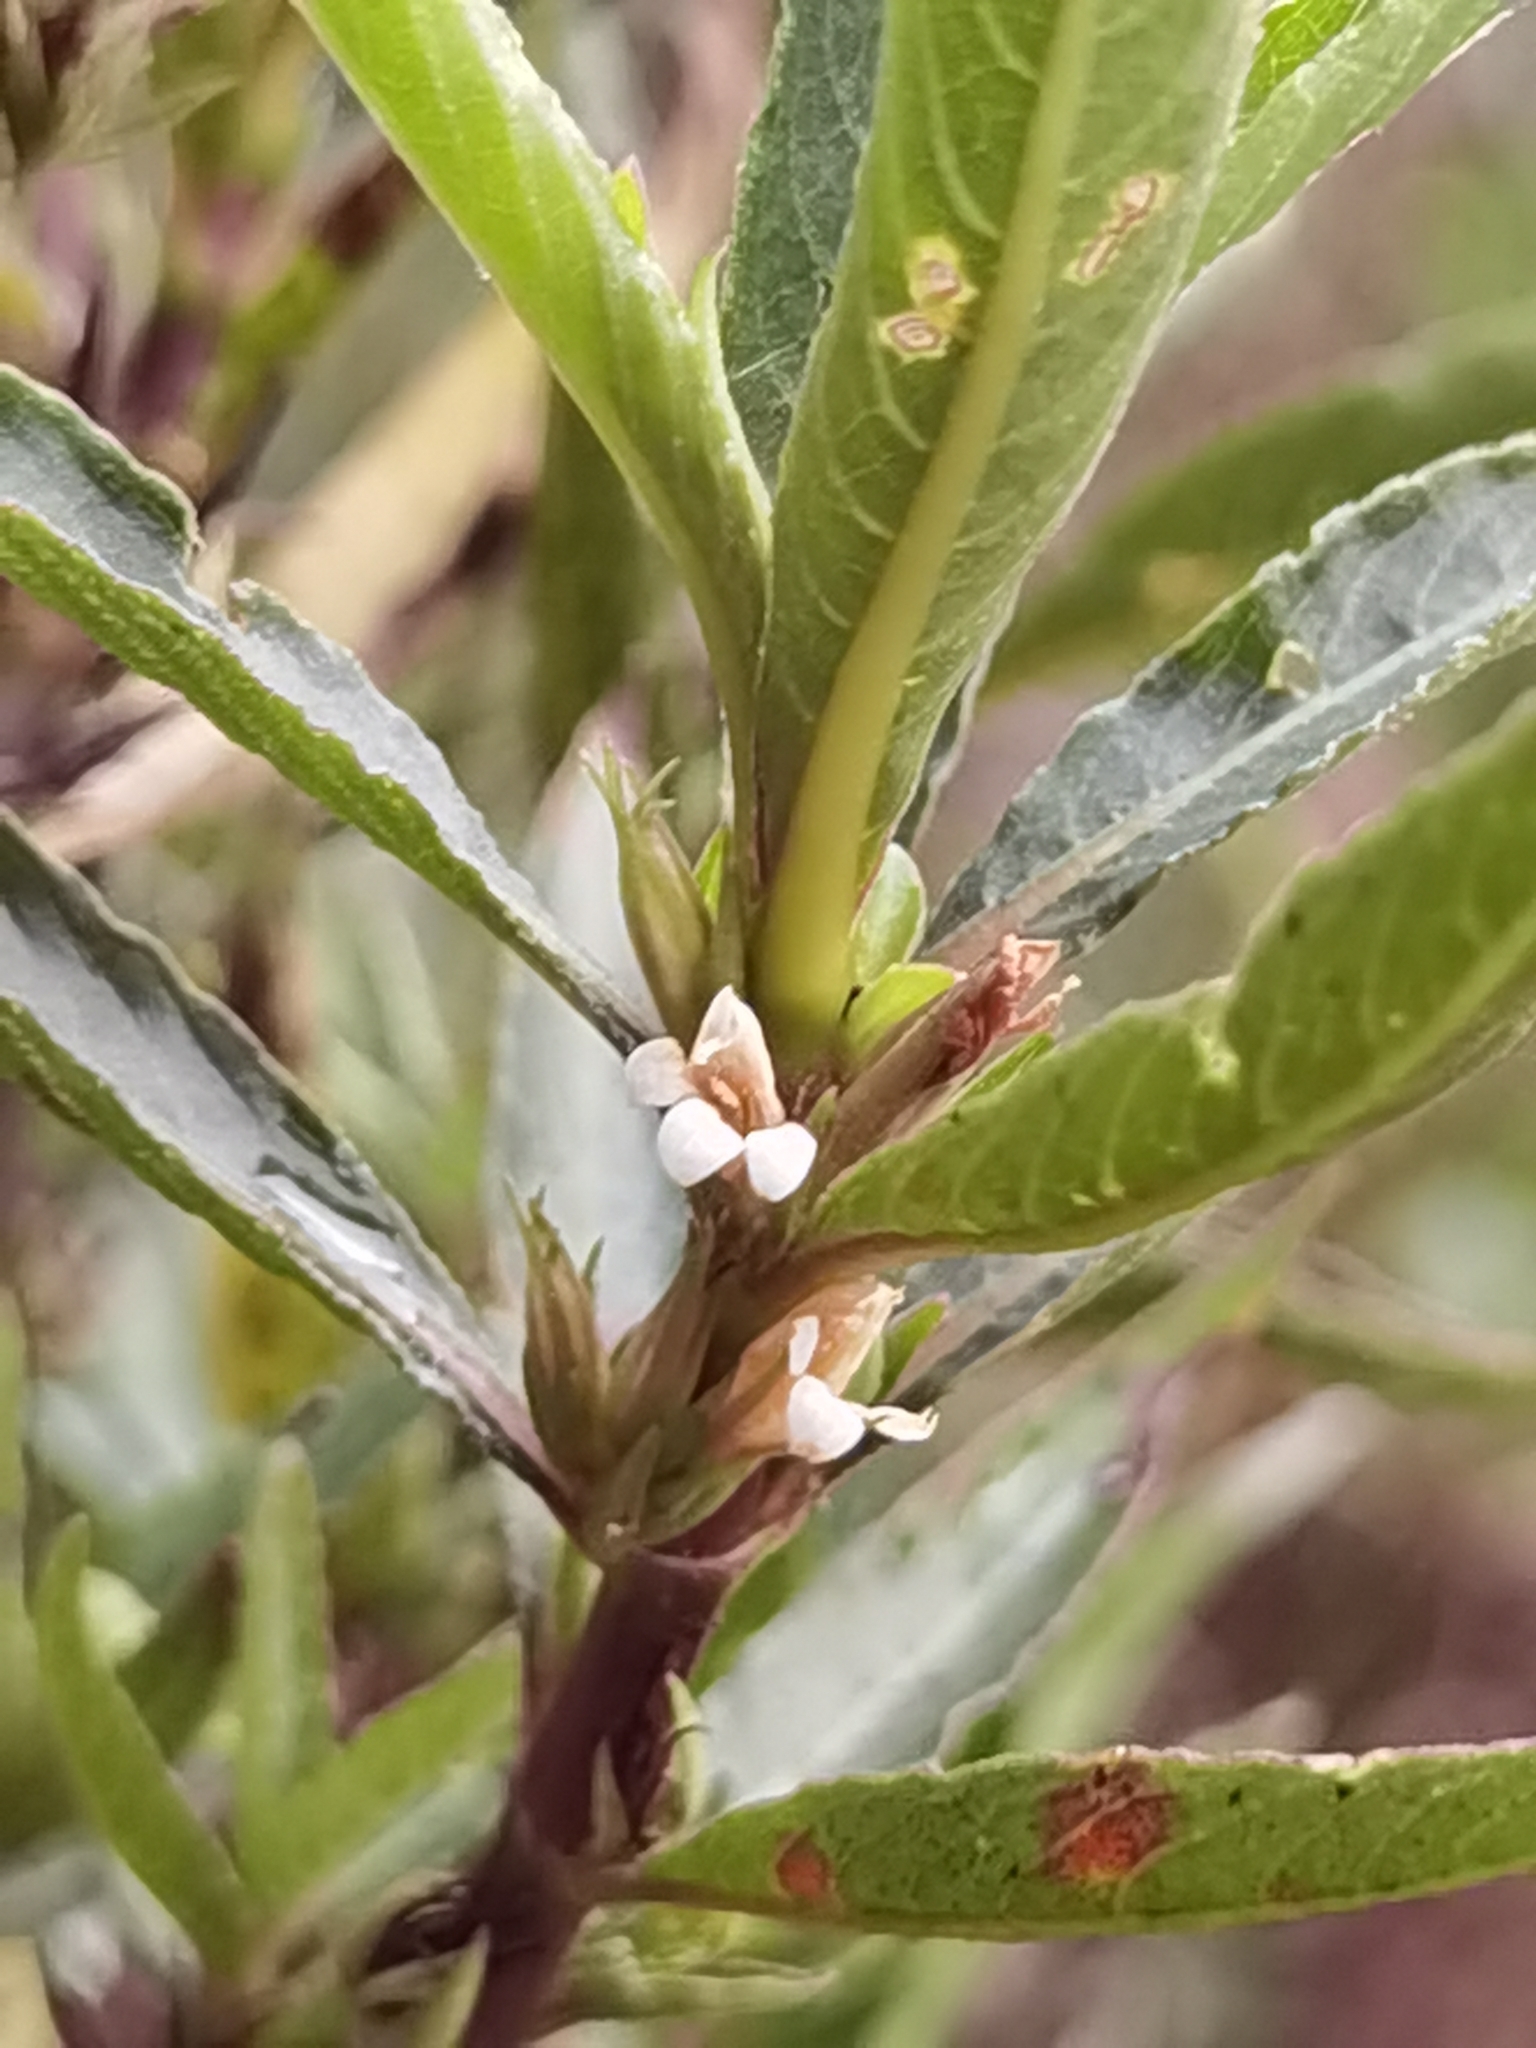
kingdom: Plantae
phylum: Tracheophyta
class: Magnoliopsida
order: Lamiales
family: Acanthaceae
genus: Hygrophila
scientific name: Hygrophila costata
